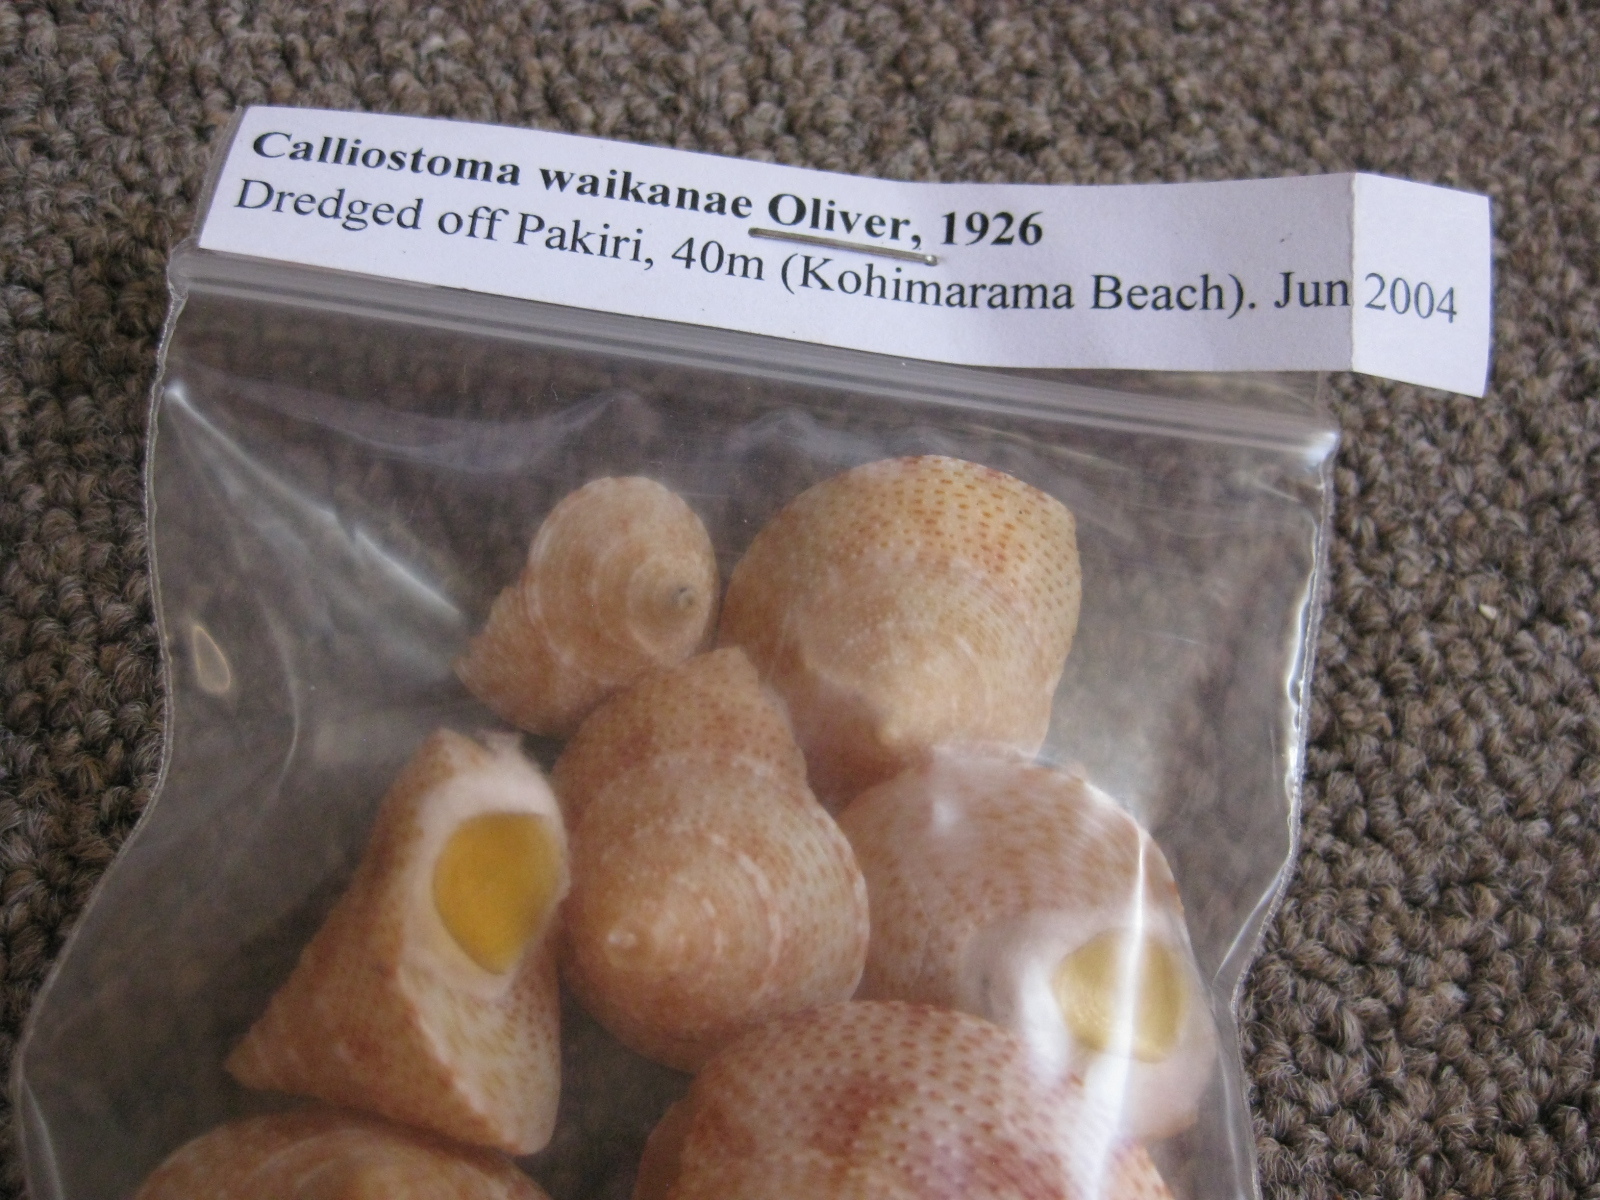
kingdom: Animalia
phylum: Mollusca
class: Gastropoda
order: Trochida
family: Calliostomatidae
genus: Maurea
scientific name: Maurea waikanae
